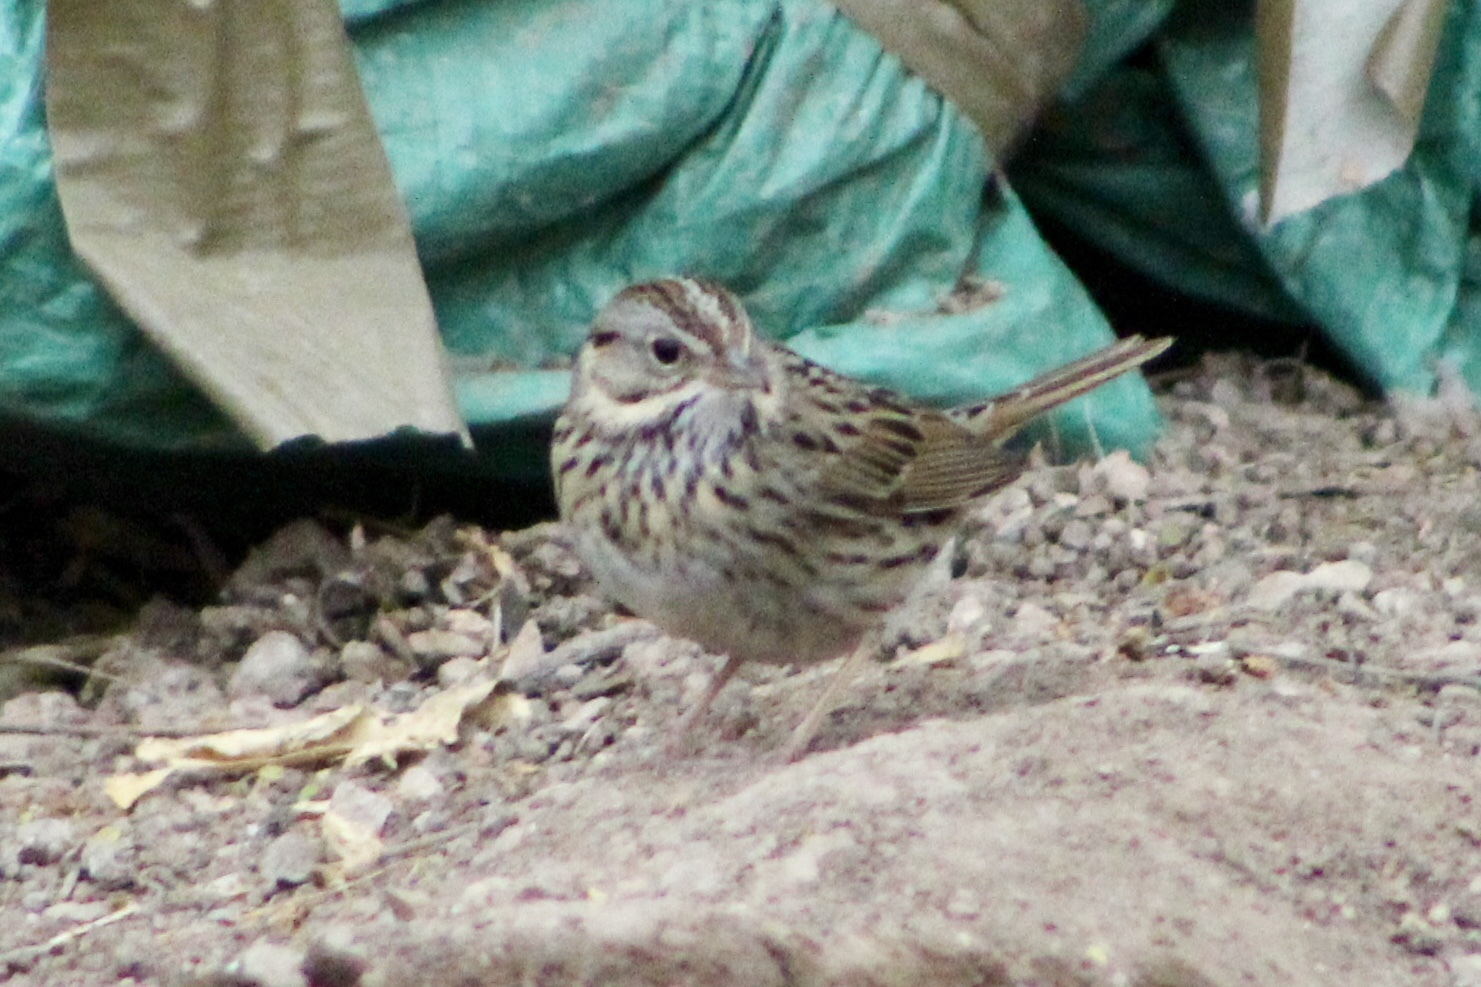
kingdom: Animalia
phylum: Chordata
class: Aves
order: Passeriformes
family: Passerellidae
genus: Melospiza
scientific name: Melospiza lincolnii
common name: Lincoln's sparrow
